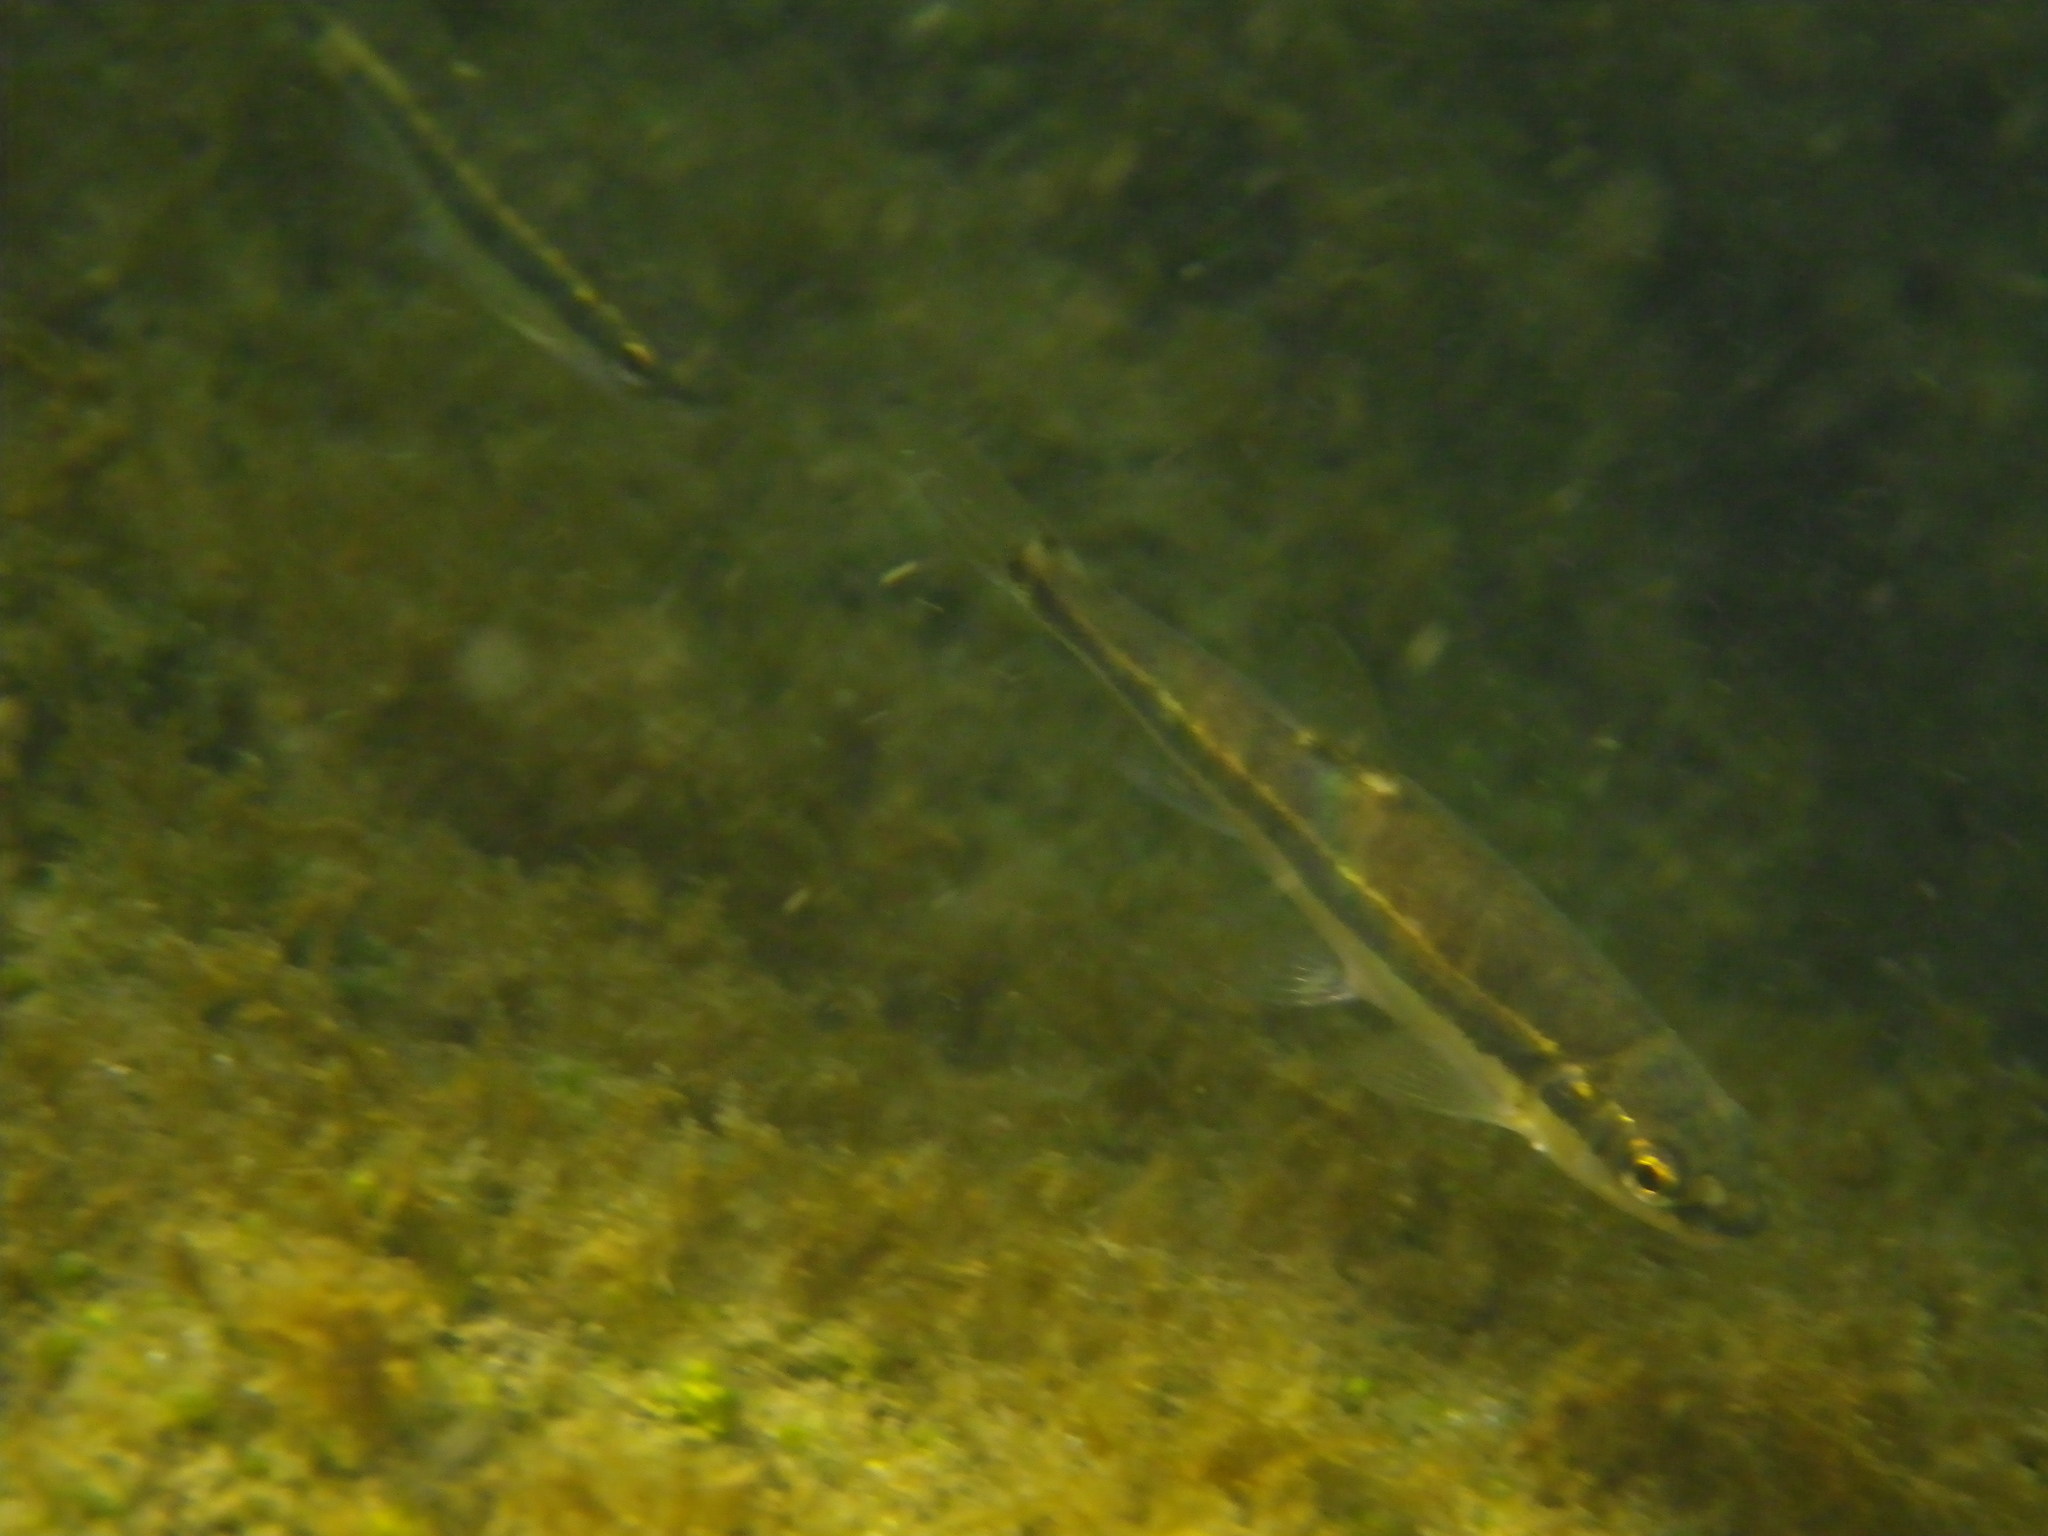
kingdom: Animalia
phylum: Chordata
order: Cypriniformes
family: Cyprinidae
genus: Phoxinus
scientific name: Phoxinus septimaniae
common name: Languedoc minnow
